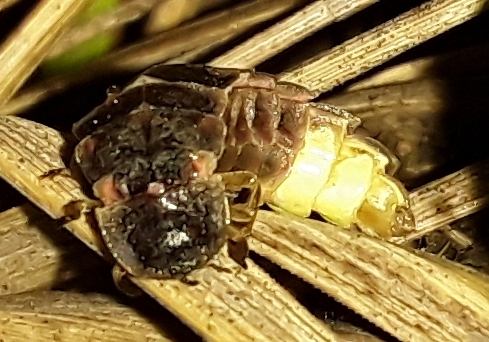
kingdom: Animalia
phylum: Arthropoda
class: Insecta
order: Coleoptera
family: Lampyridae
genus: Lampyris
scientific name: Lampyris noctiluca
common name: Glow-worm
